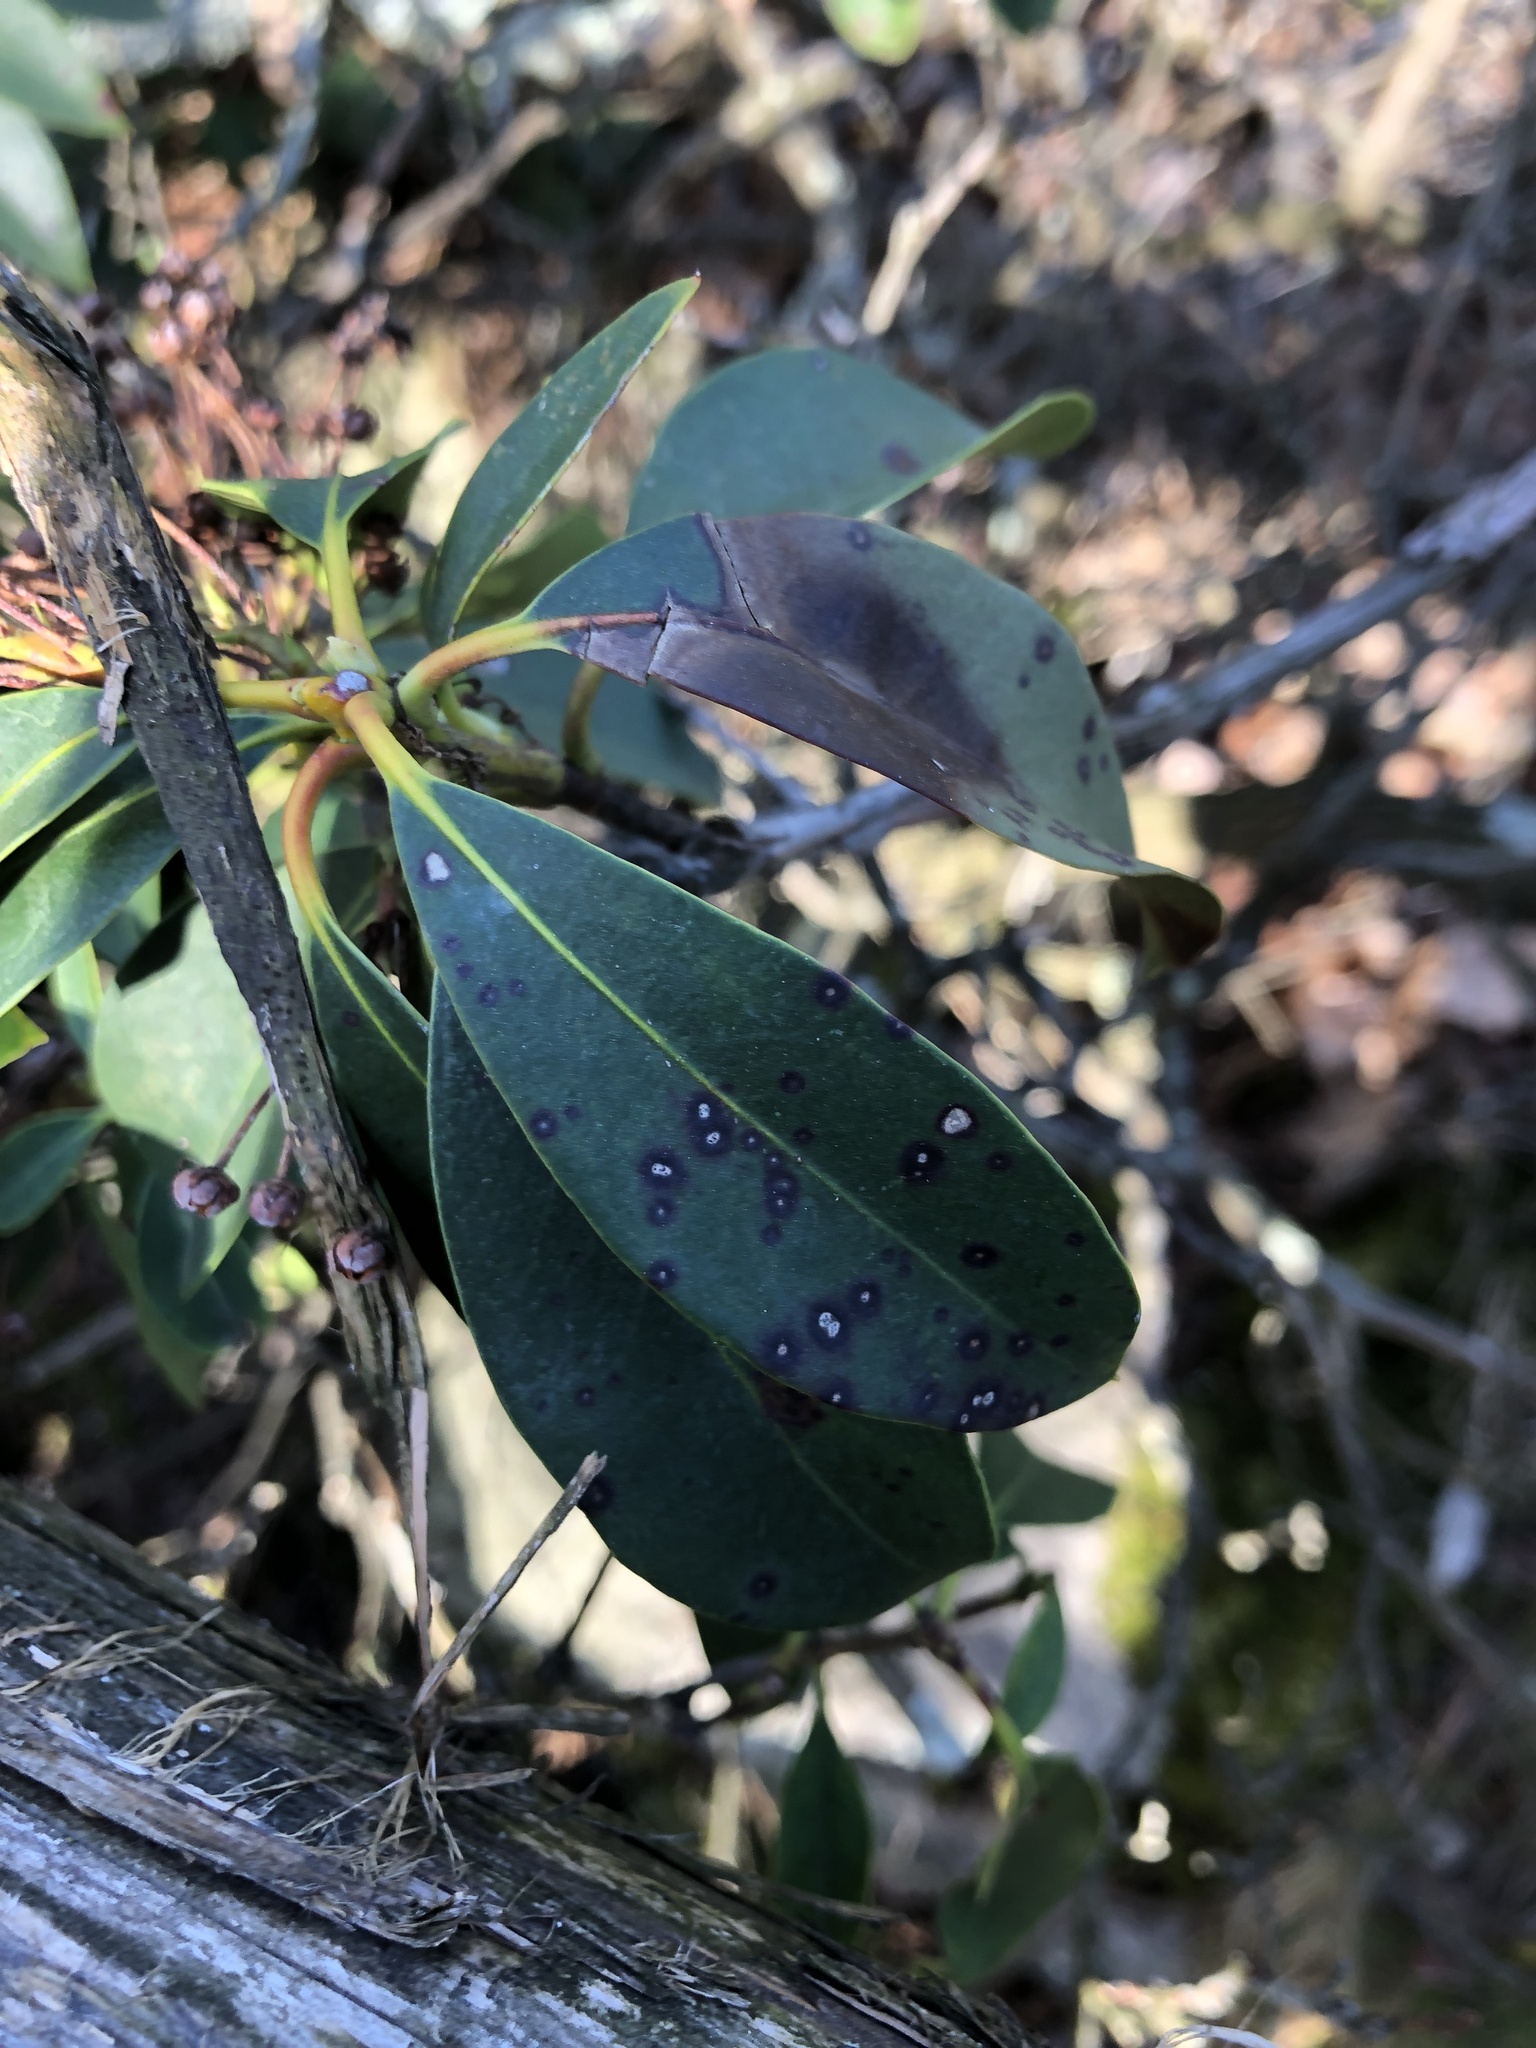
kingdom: Plantae
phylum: Tracheophyta
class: Magnoliopsida
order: Ericales
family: Ericaceae
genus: Kalmia
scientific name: Kalmia latifolia
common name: Mountain-laurel
